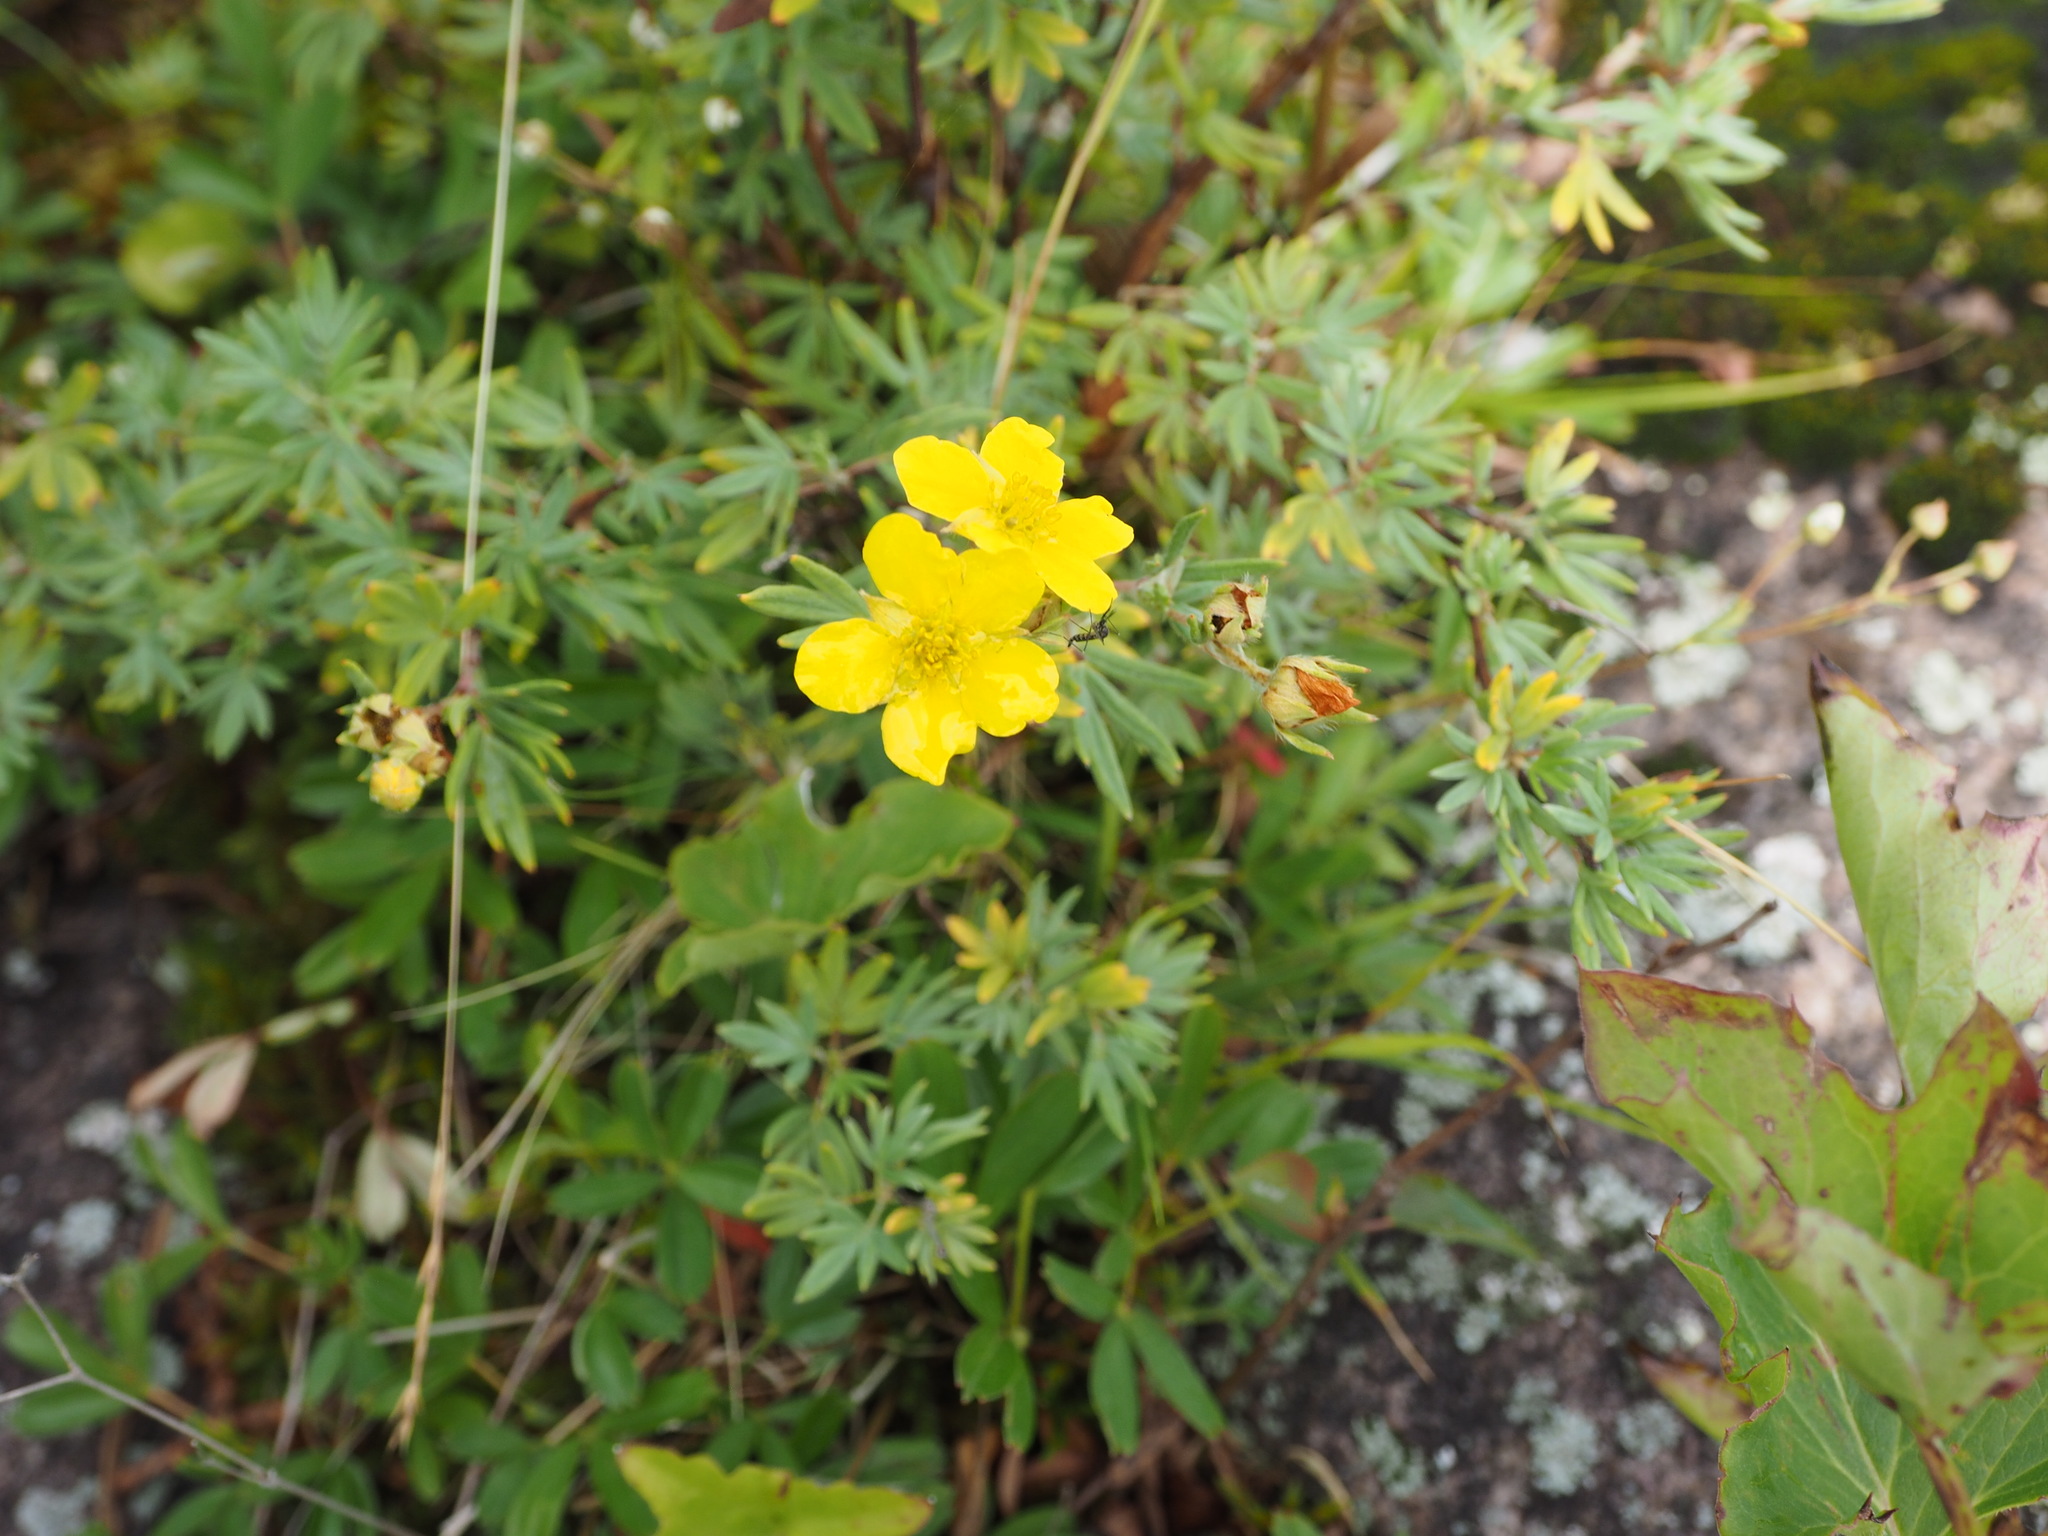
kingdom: Plantae
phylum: Tracheophyta
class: Magnoliopsida
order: Rosales
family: Rosaceae
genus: Dasiphora
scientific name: Dasiphora fruticosa
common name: Shrubby cinquefoil
